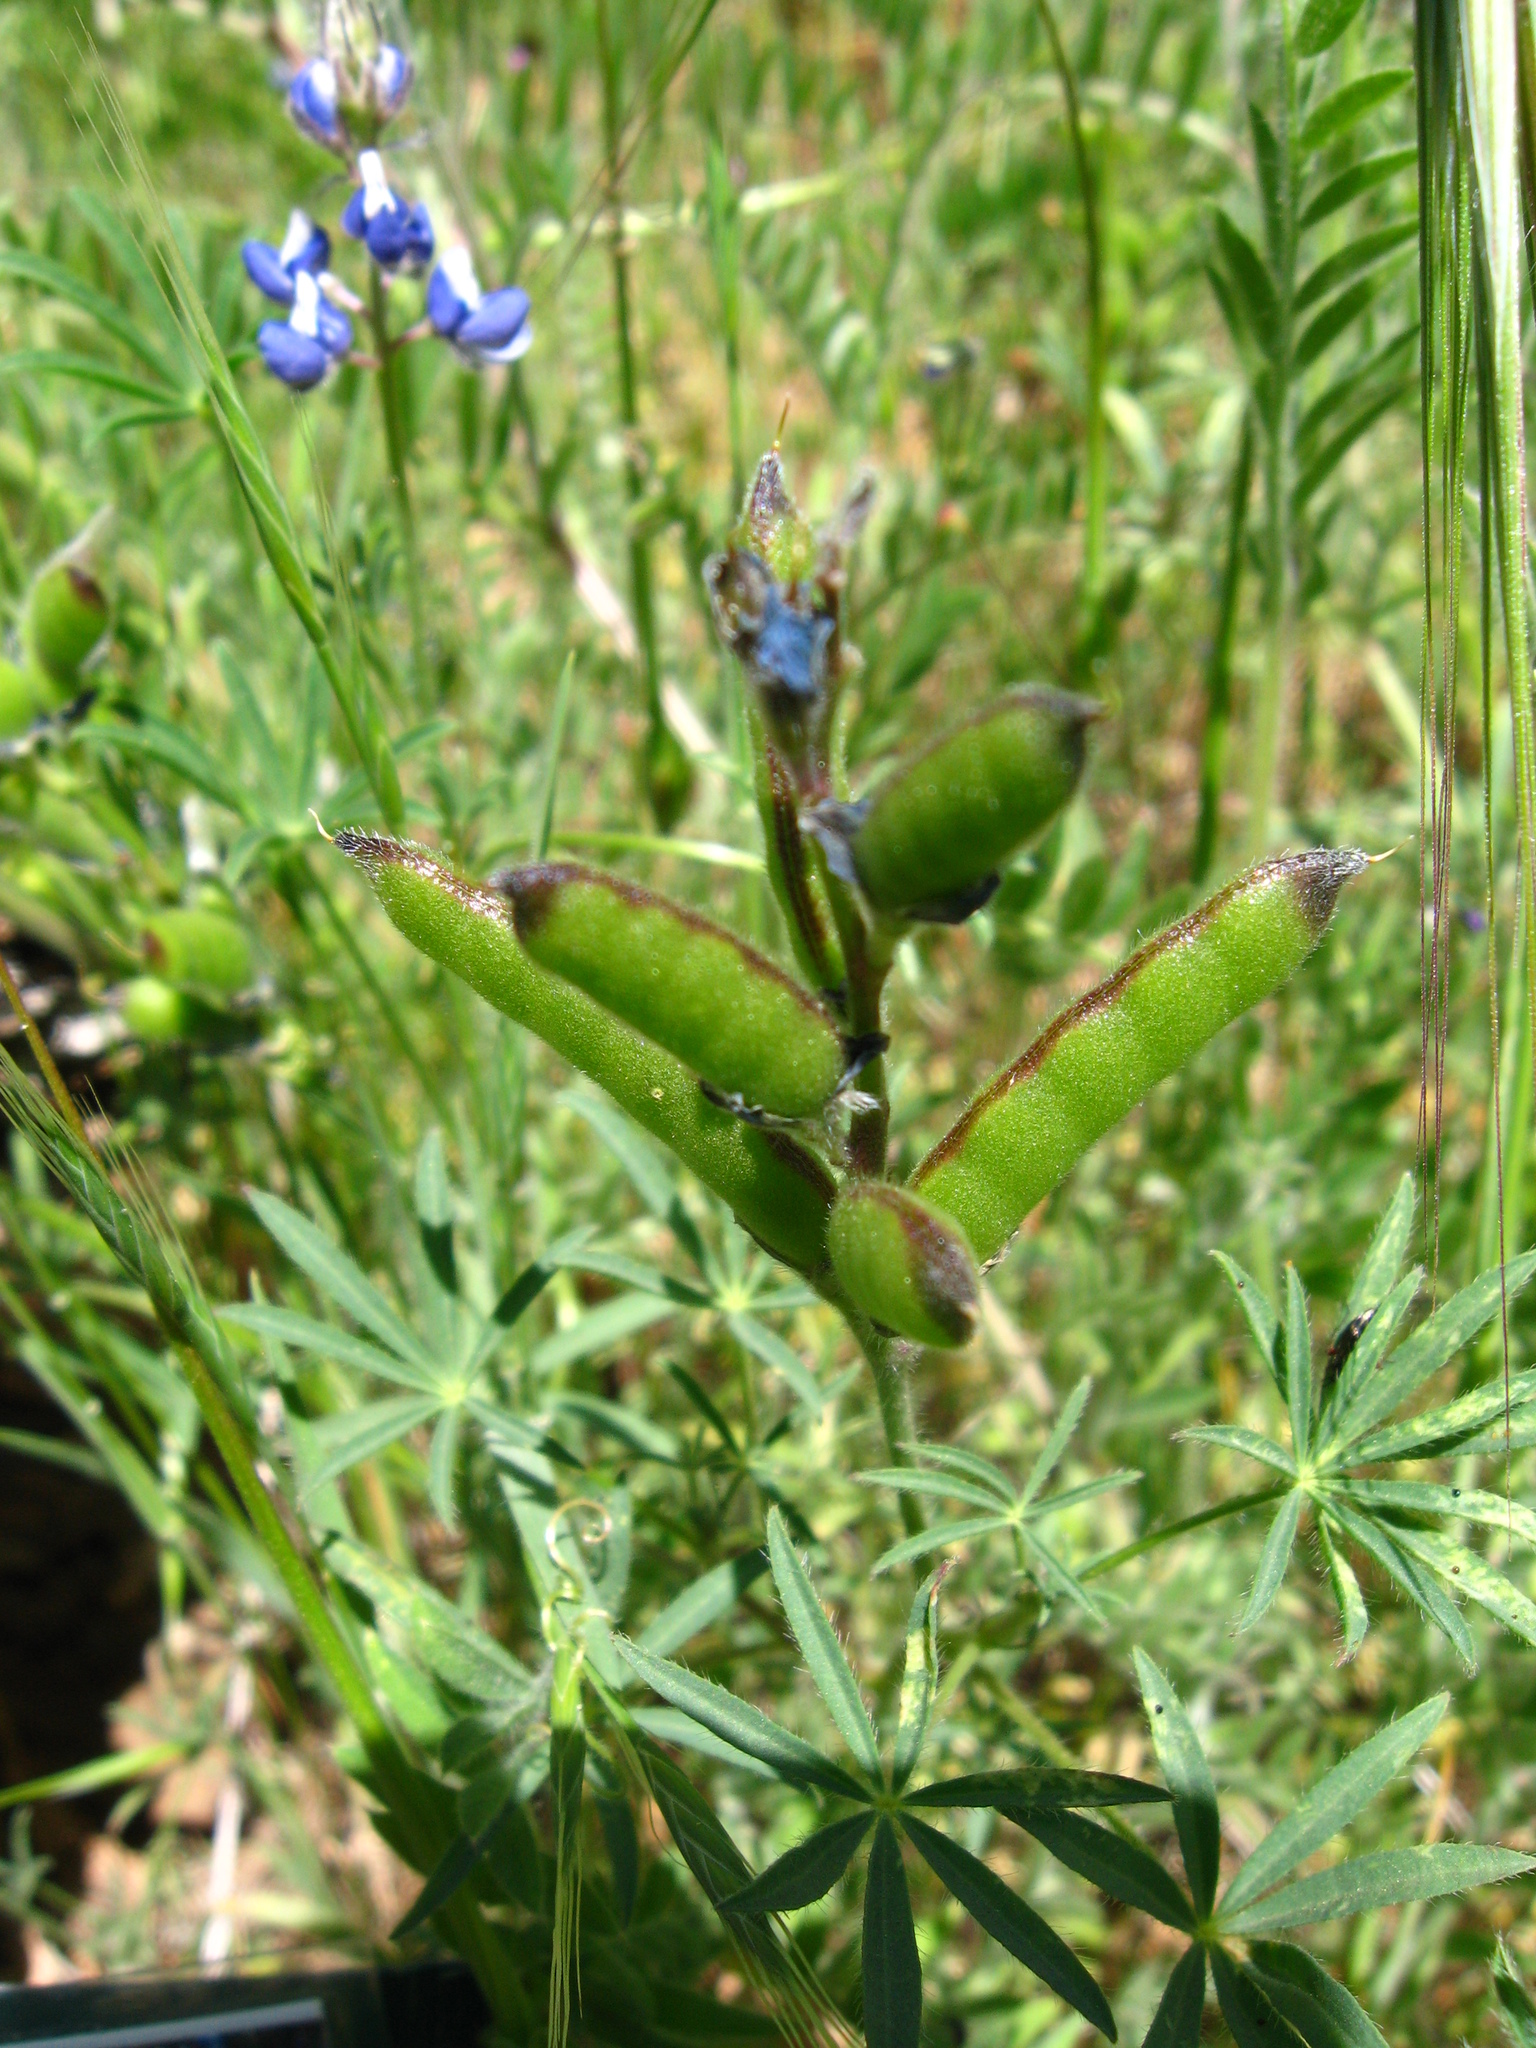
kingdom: Plantae
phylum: Tracheophyta
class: Magnoliopsida
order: Fabales
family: Fabaceae
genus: Lupinus
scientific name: Lupinus bicolor
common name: Miniature lupine
